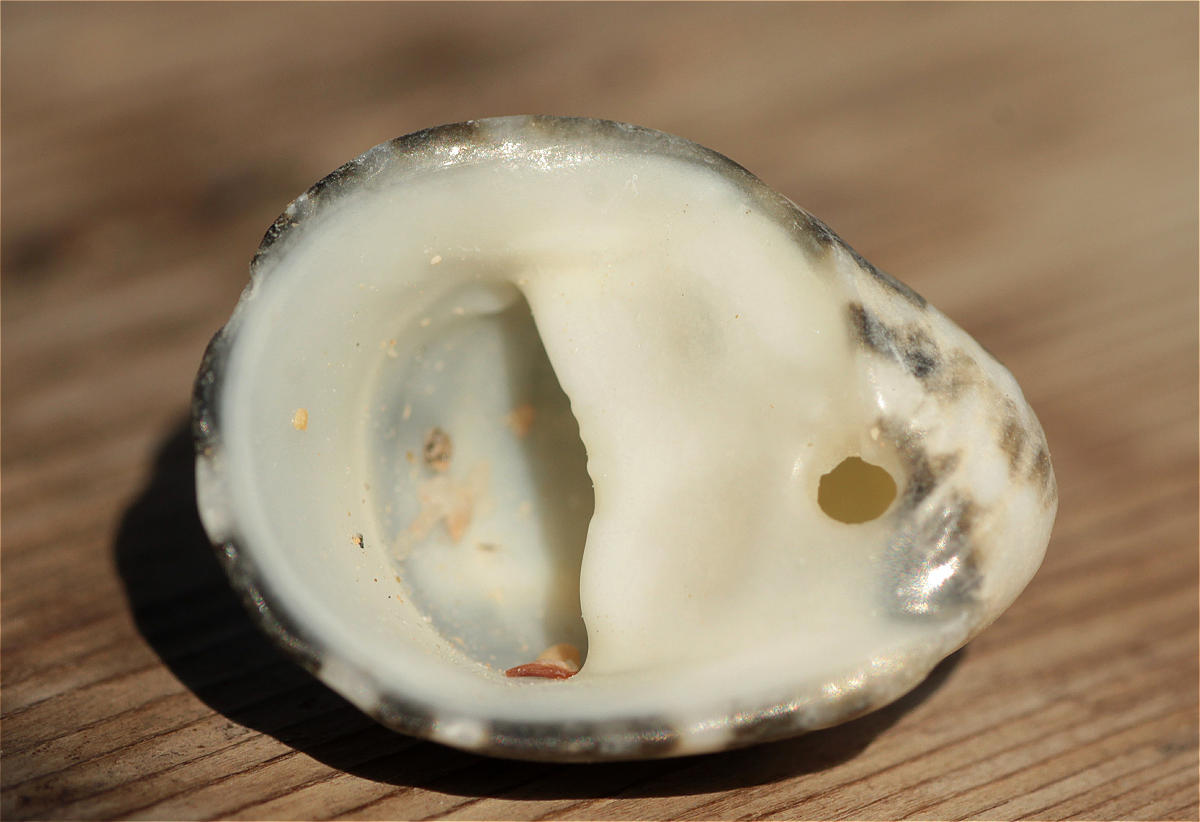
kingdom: Animalia
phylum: Mollusca
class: Gastropoda
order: Cycloneritida
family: Neritidae
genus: Nerita
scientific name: Nerita albicilla
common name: Blotched nerite
